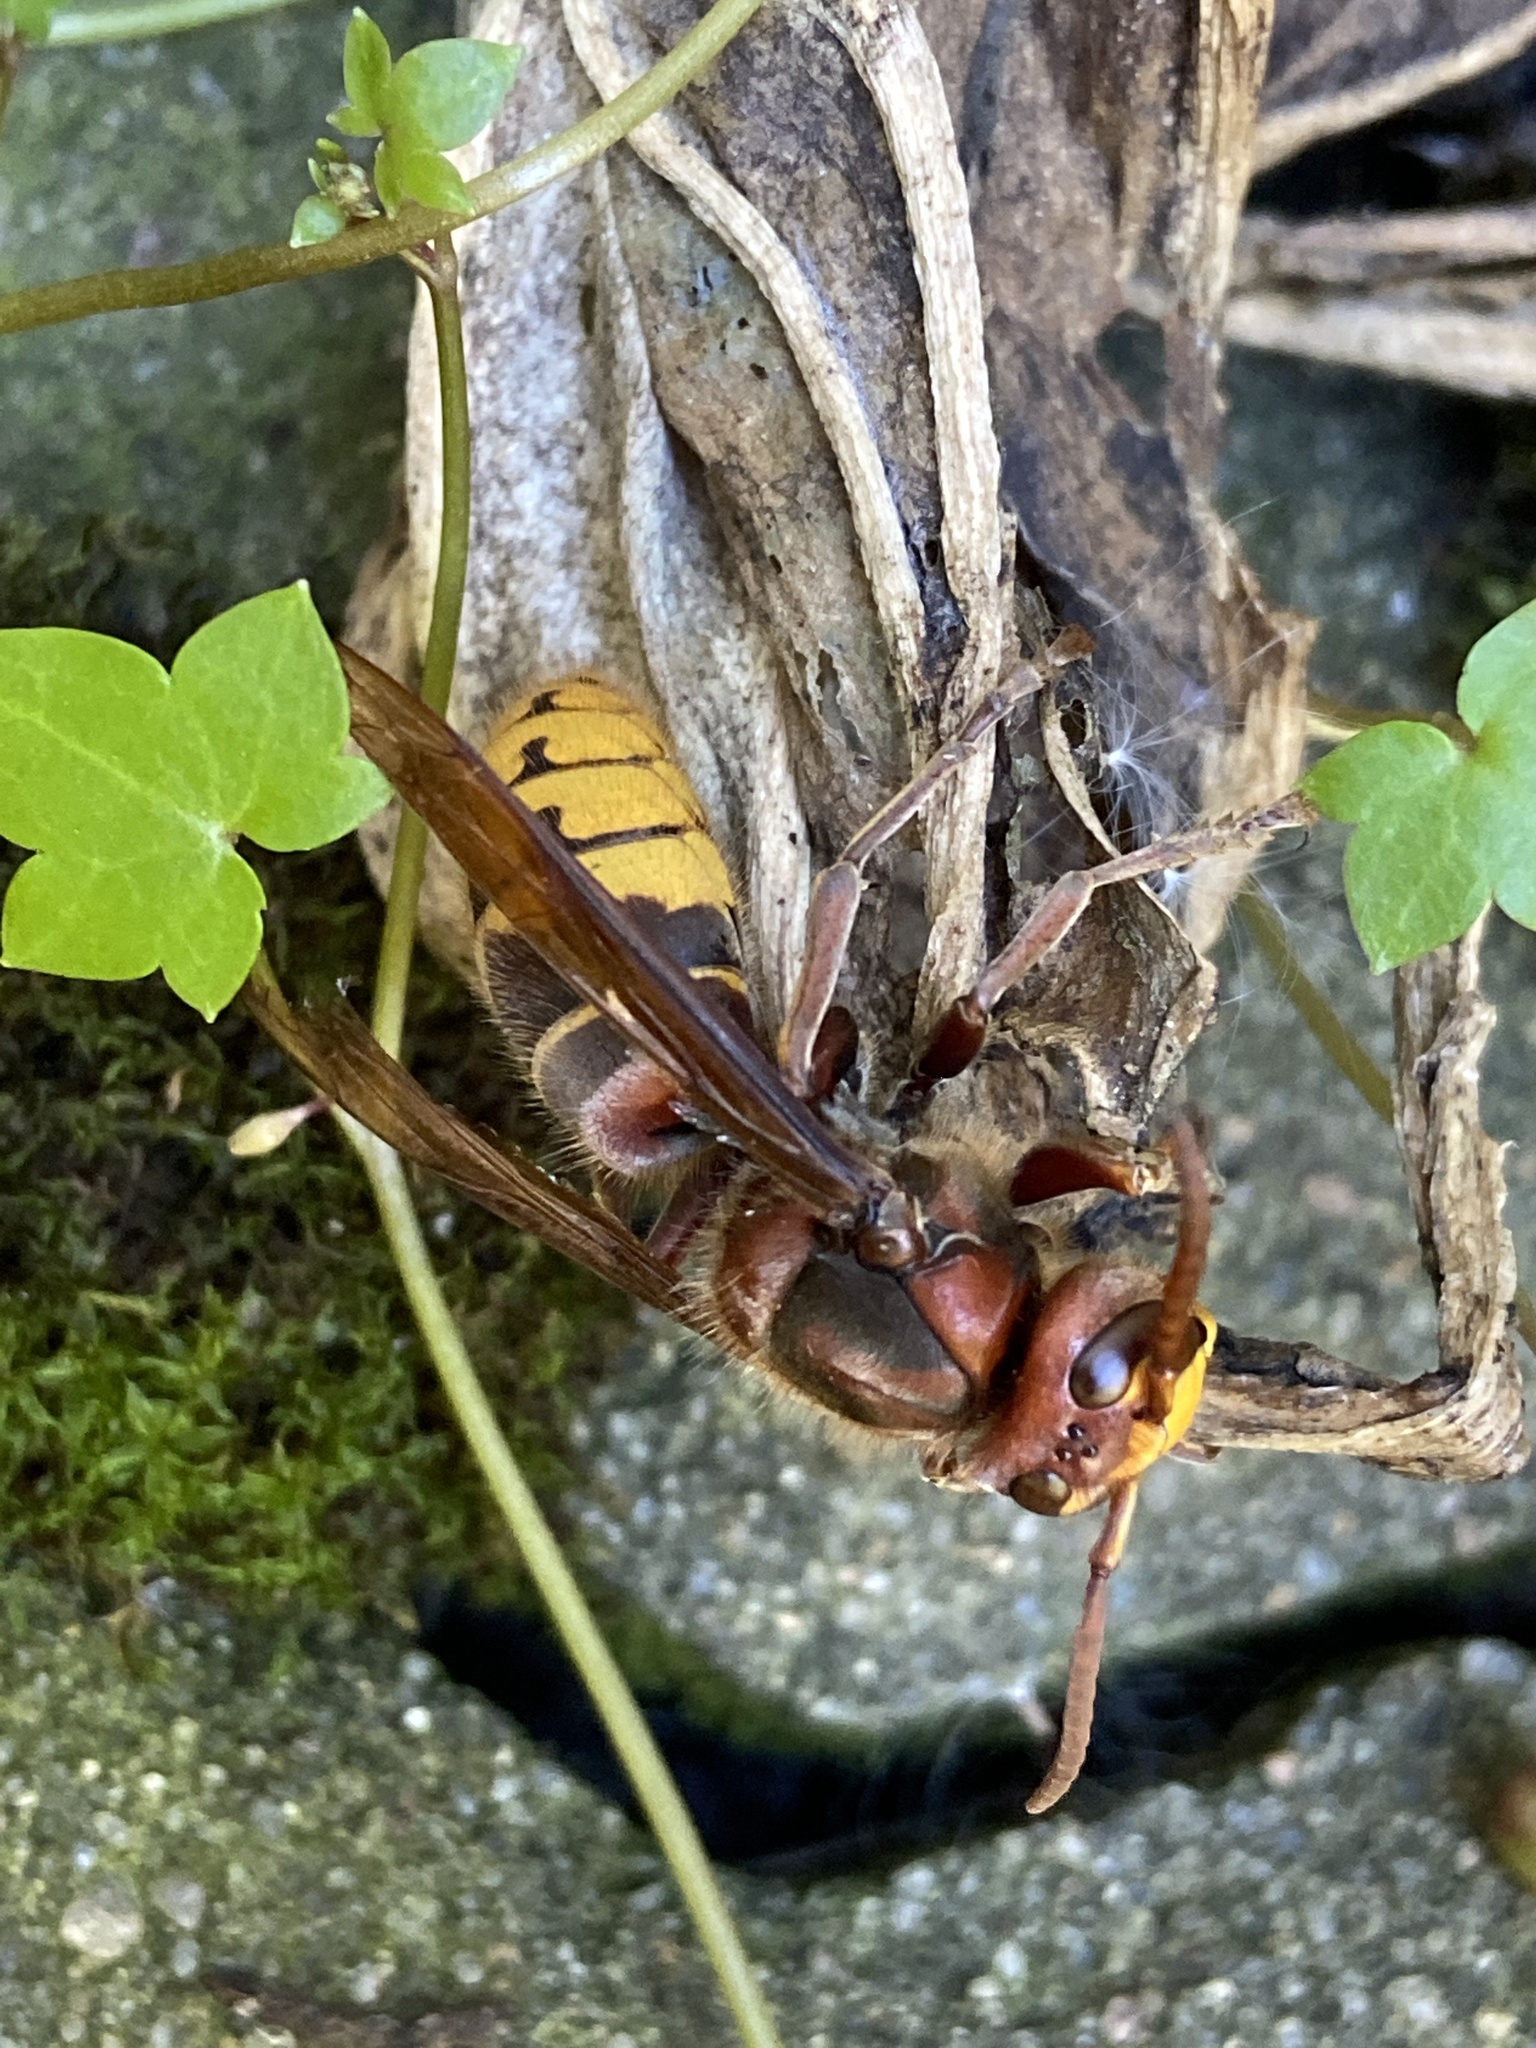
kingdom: Animalia
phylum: Arthropoda
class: Insecta
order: Hymenoptera
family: Vespidae
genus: Vespa
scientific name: Vespa crabro
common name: Hornet
